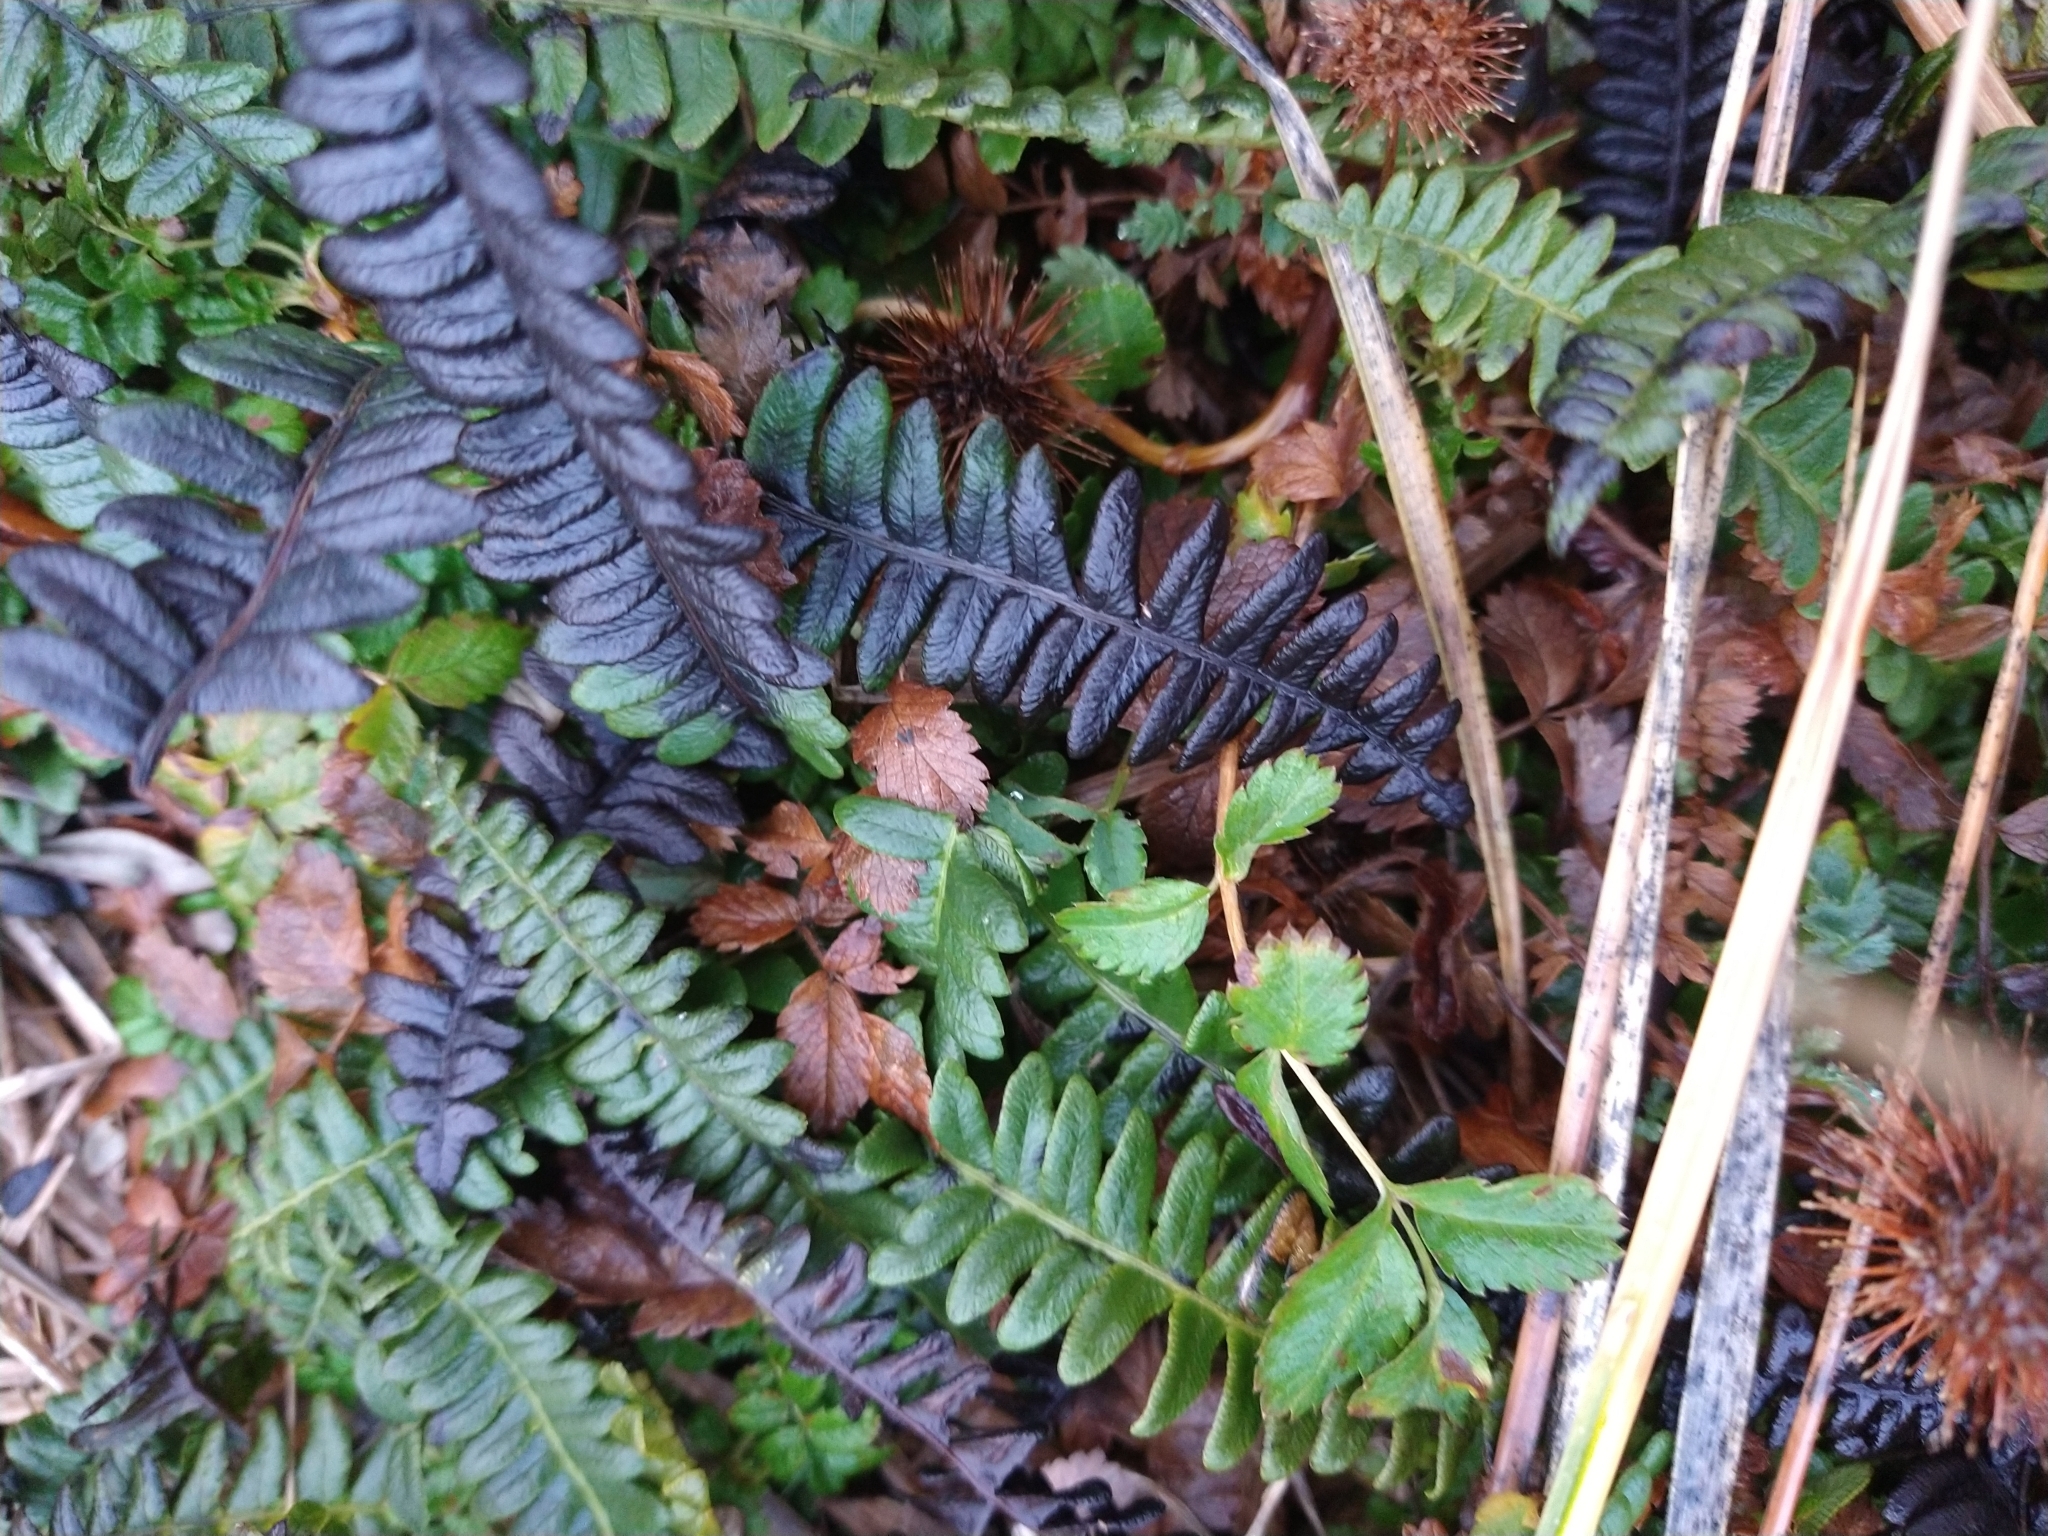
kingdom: Plantae
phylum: Tracheophyta
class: Polypodiopsida
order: Polypodiales
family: Blechnaceae
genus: Austroblechnum
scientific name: Austroblechnum penna-marina
